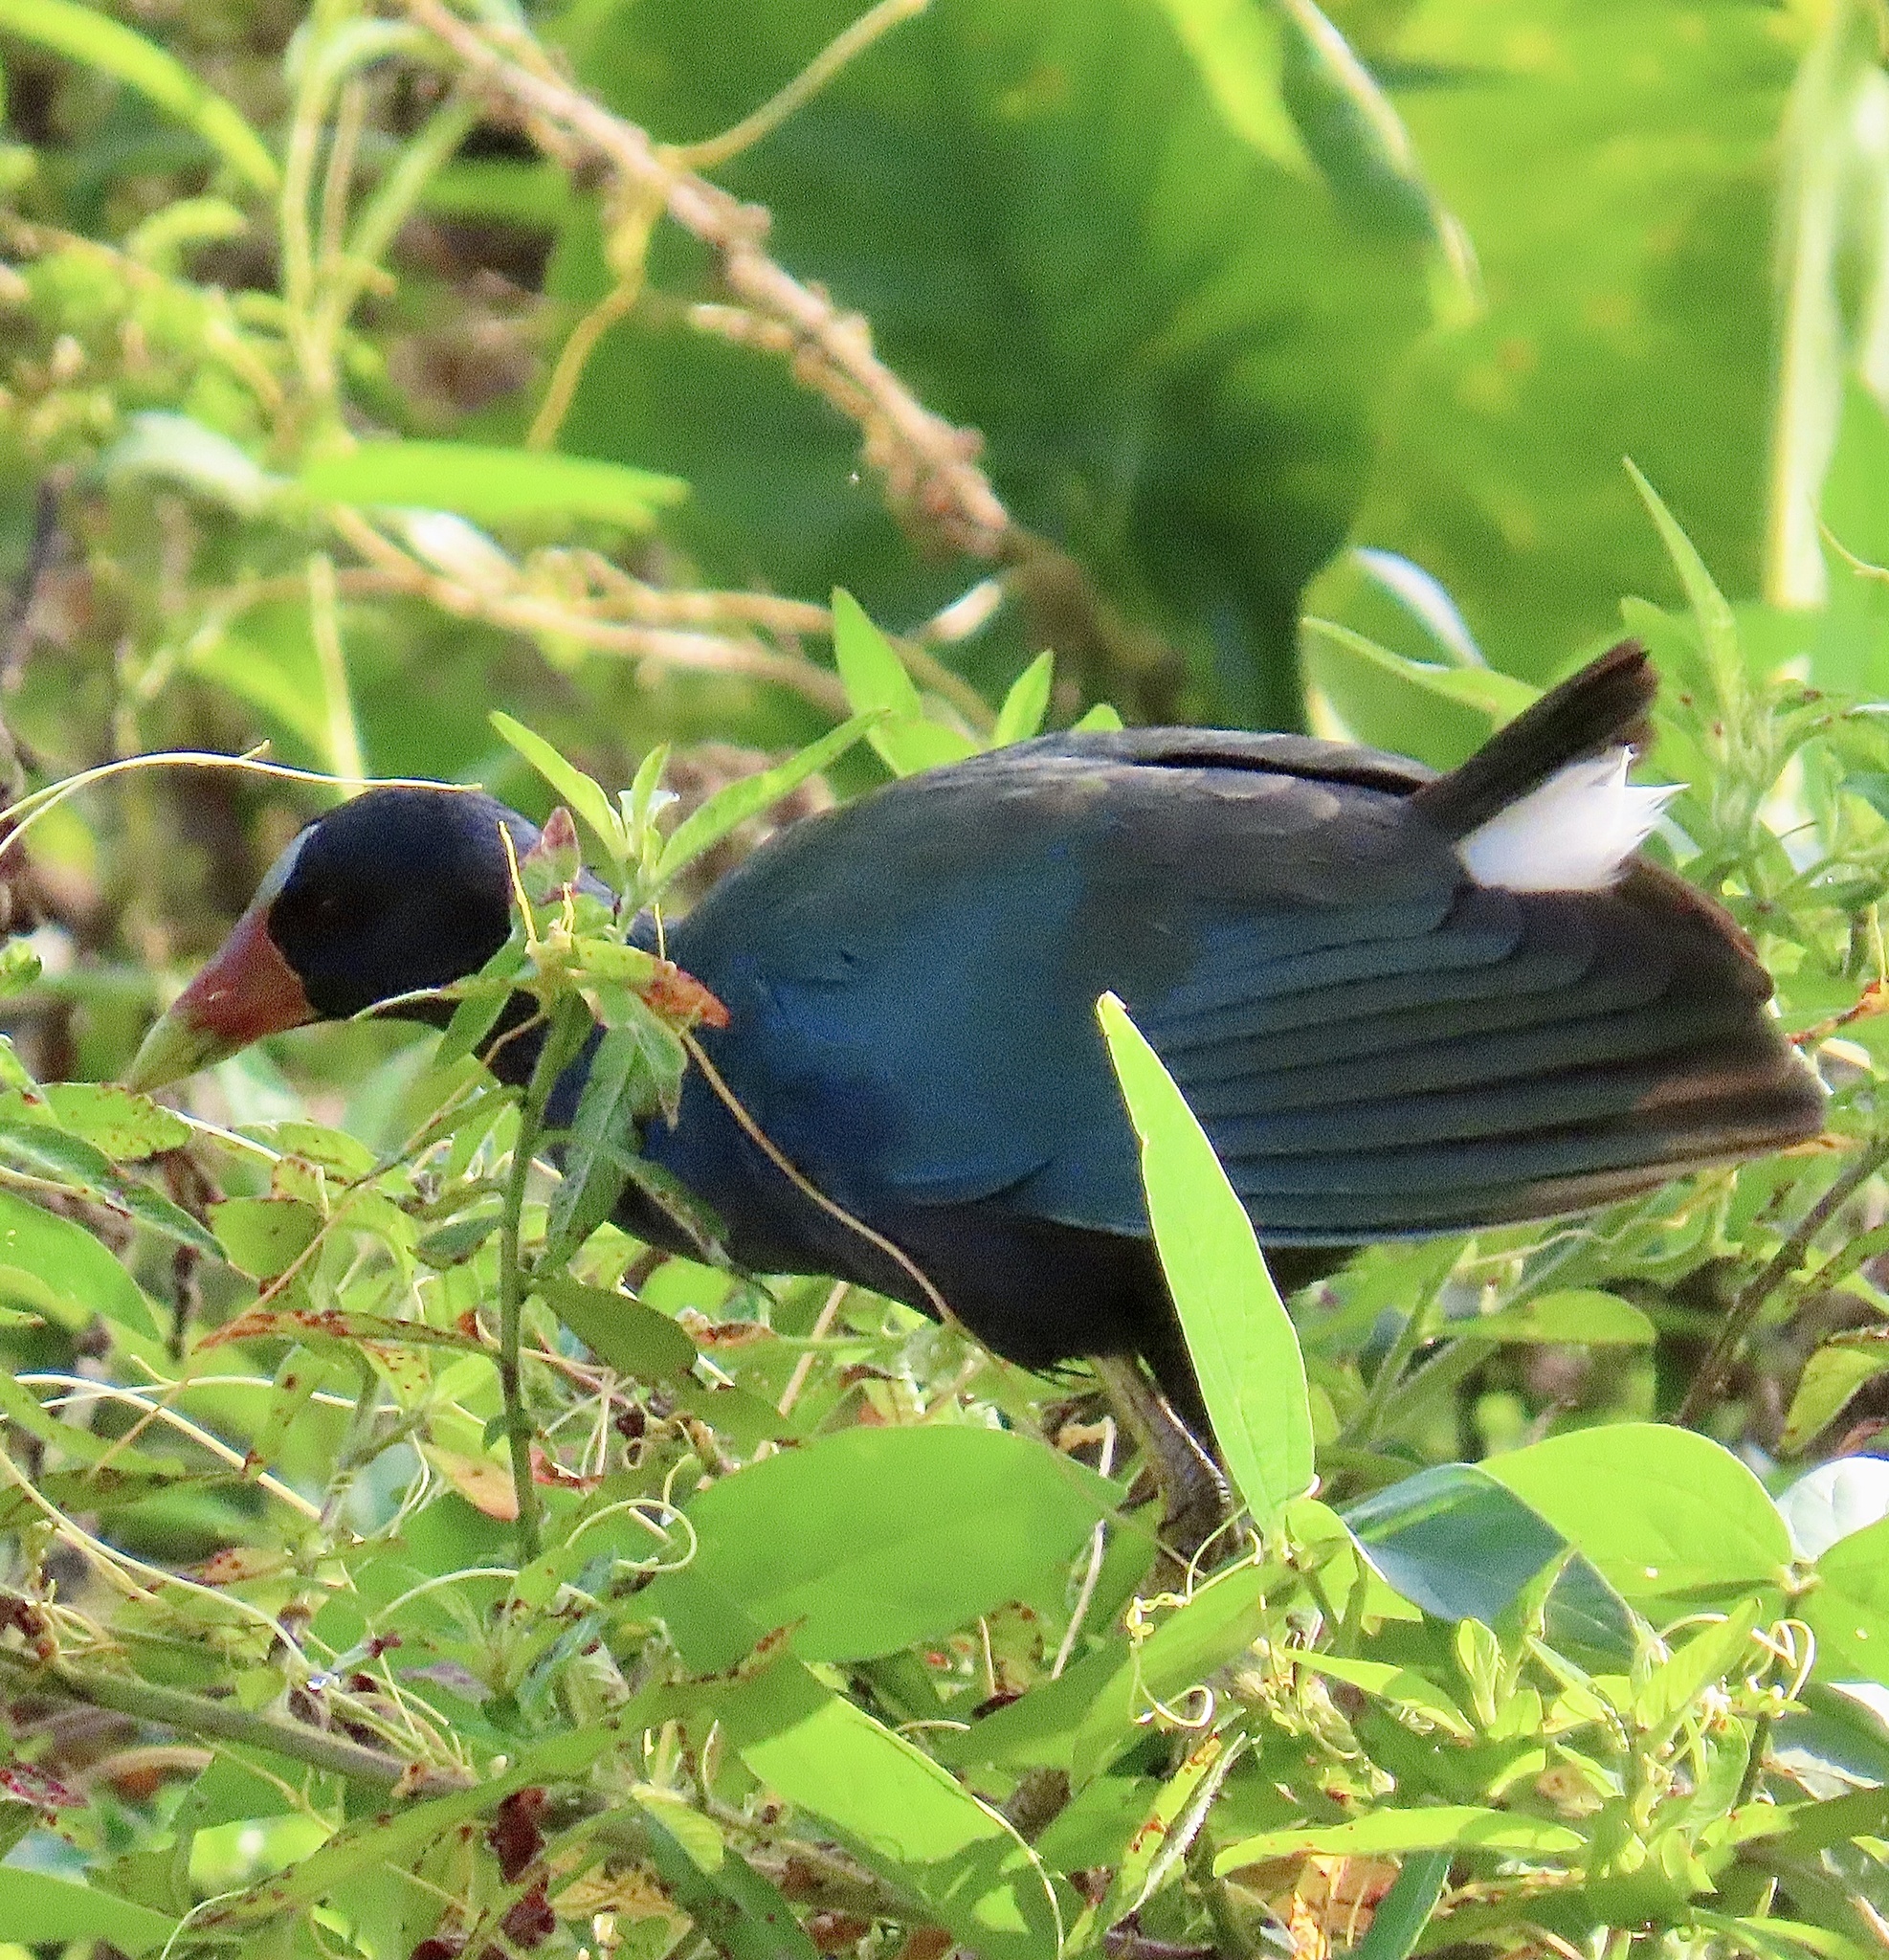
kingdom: Animalia
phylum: Chordata
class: Aves
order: Gruiformes
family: Rallidae
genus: Porphyrio
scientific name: Porphyrio martinica
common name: Purple gallinule
